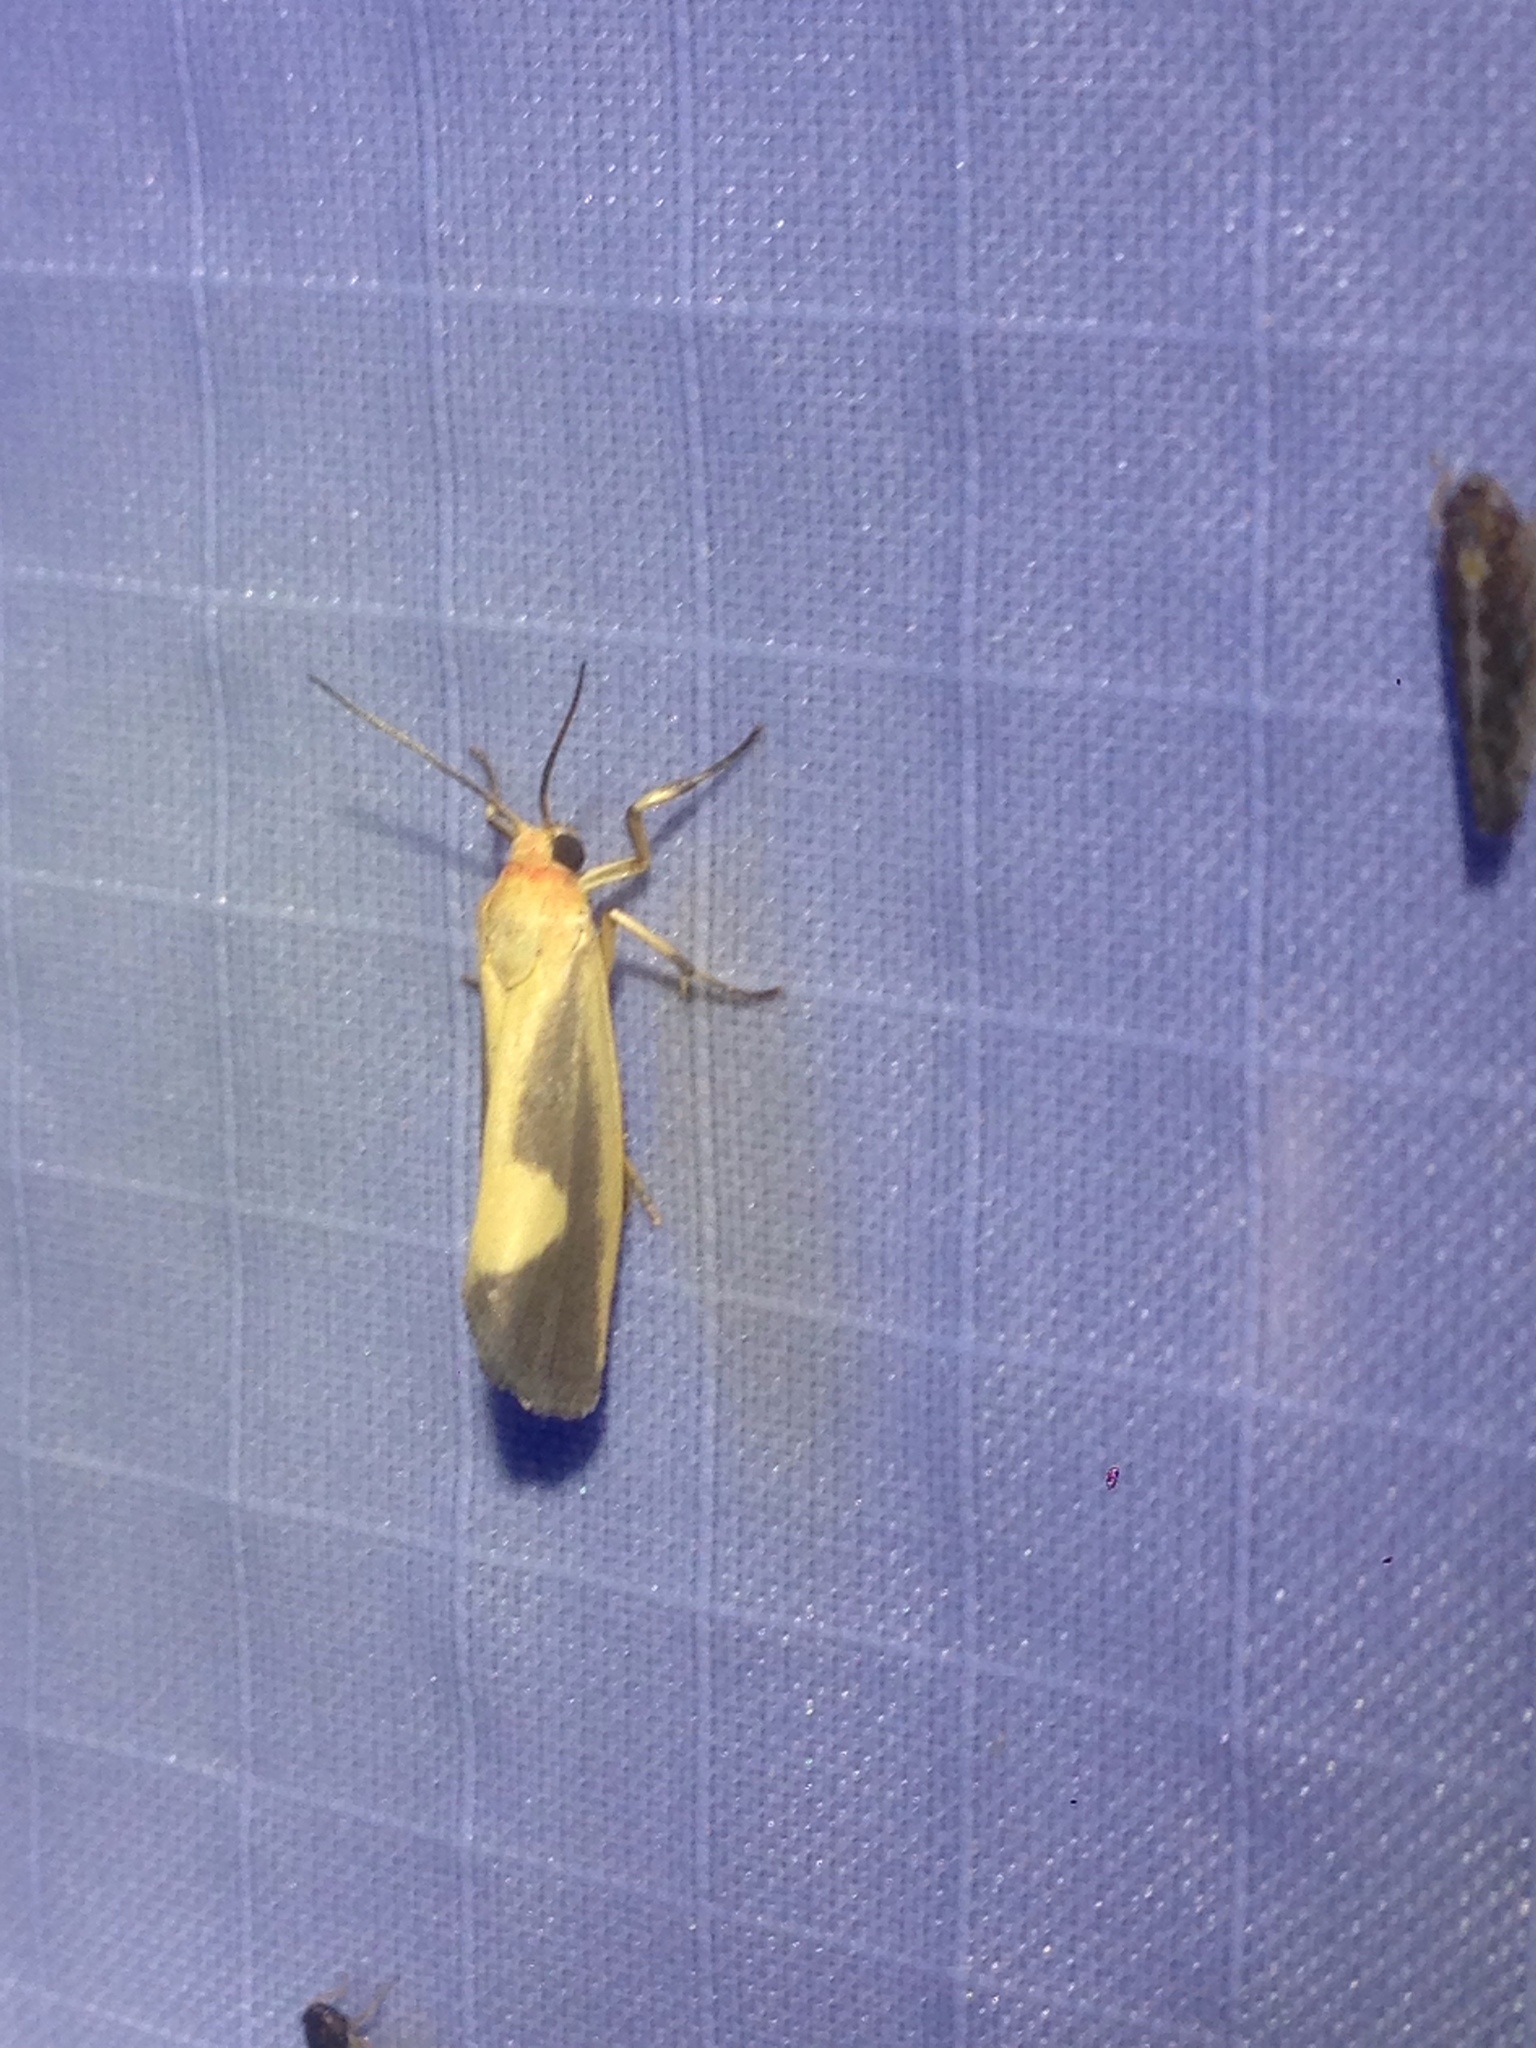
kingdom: Animalia
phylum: Arthropoda
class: Insecta
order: Lepidoptera
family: Erebidae
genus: Cisthene
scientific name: Cisthene plumbea
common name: Lead colored lichen moth
